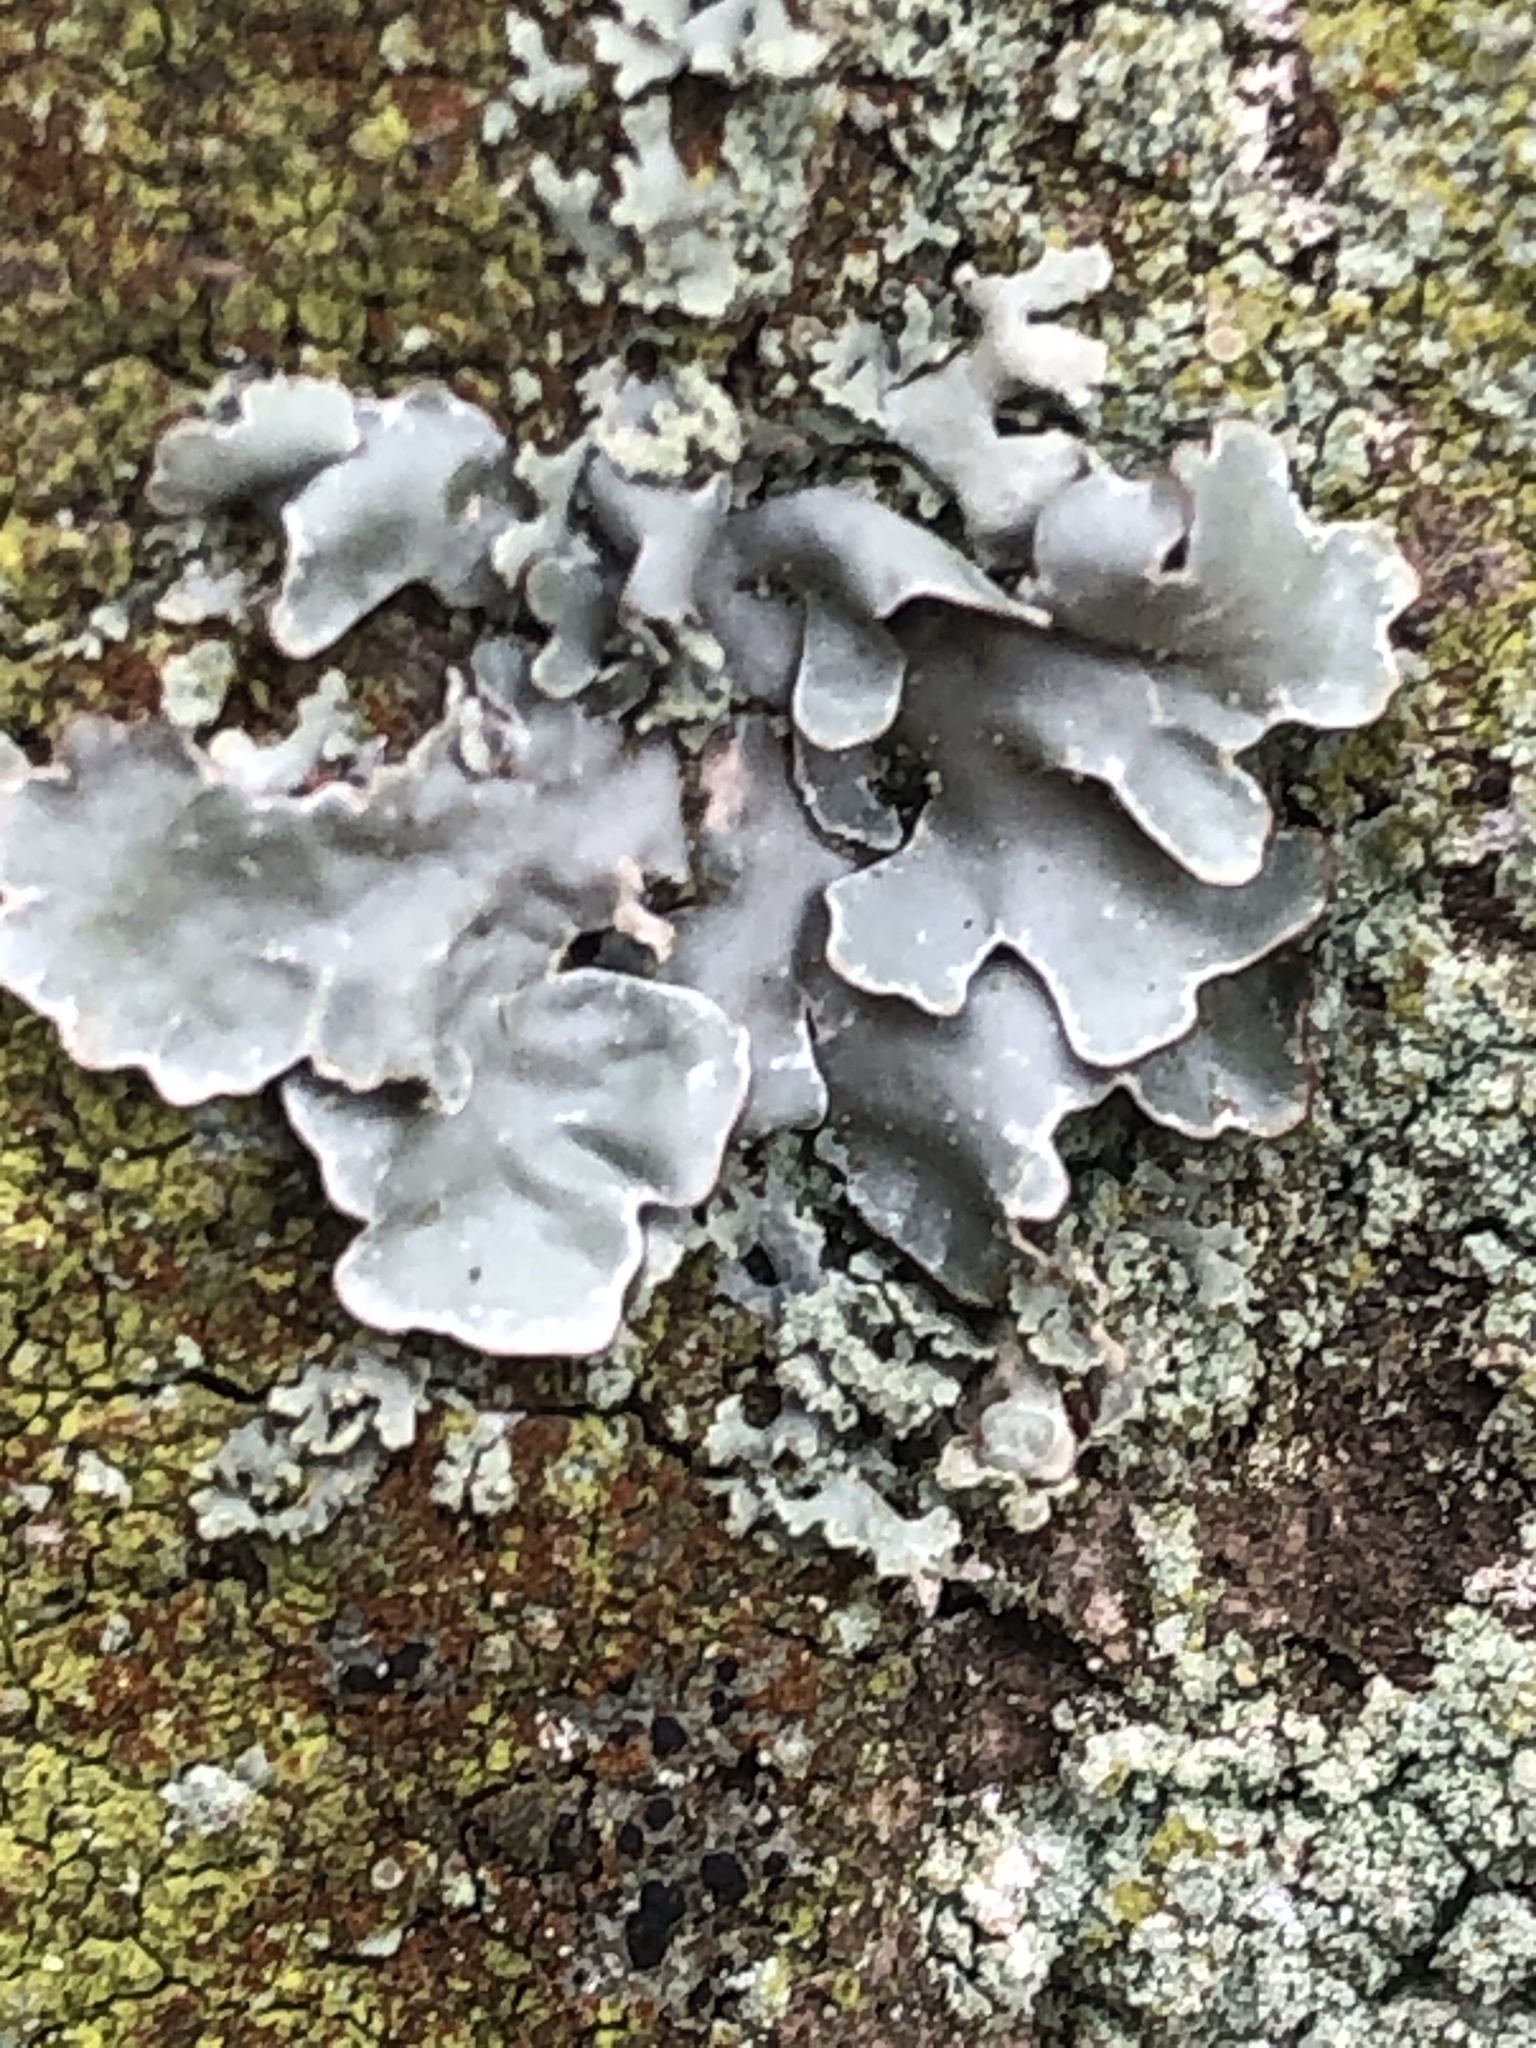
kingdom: Fungi
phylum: Ascomycota
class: Lecanoromycetes
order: Lecanorales
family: Parmeliaceae
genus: Parmelia
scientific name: Parmelia sulcata
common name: Netted shield lichen
